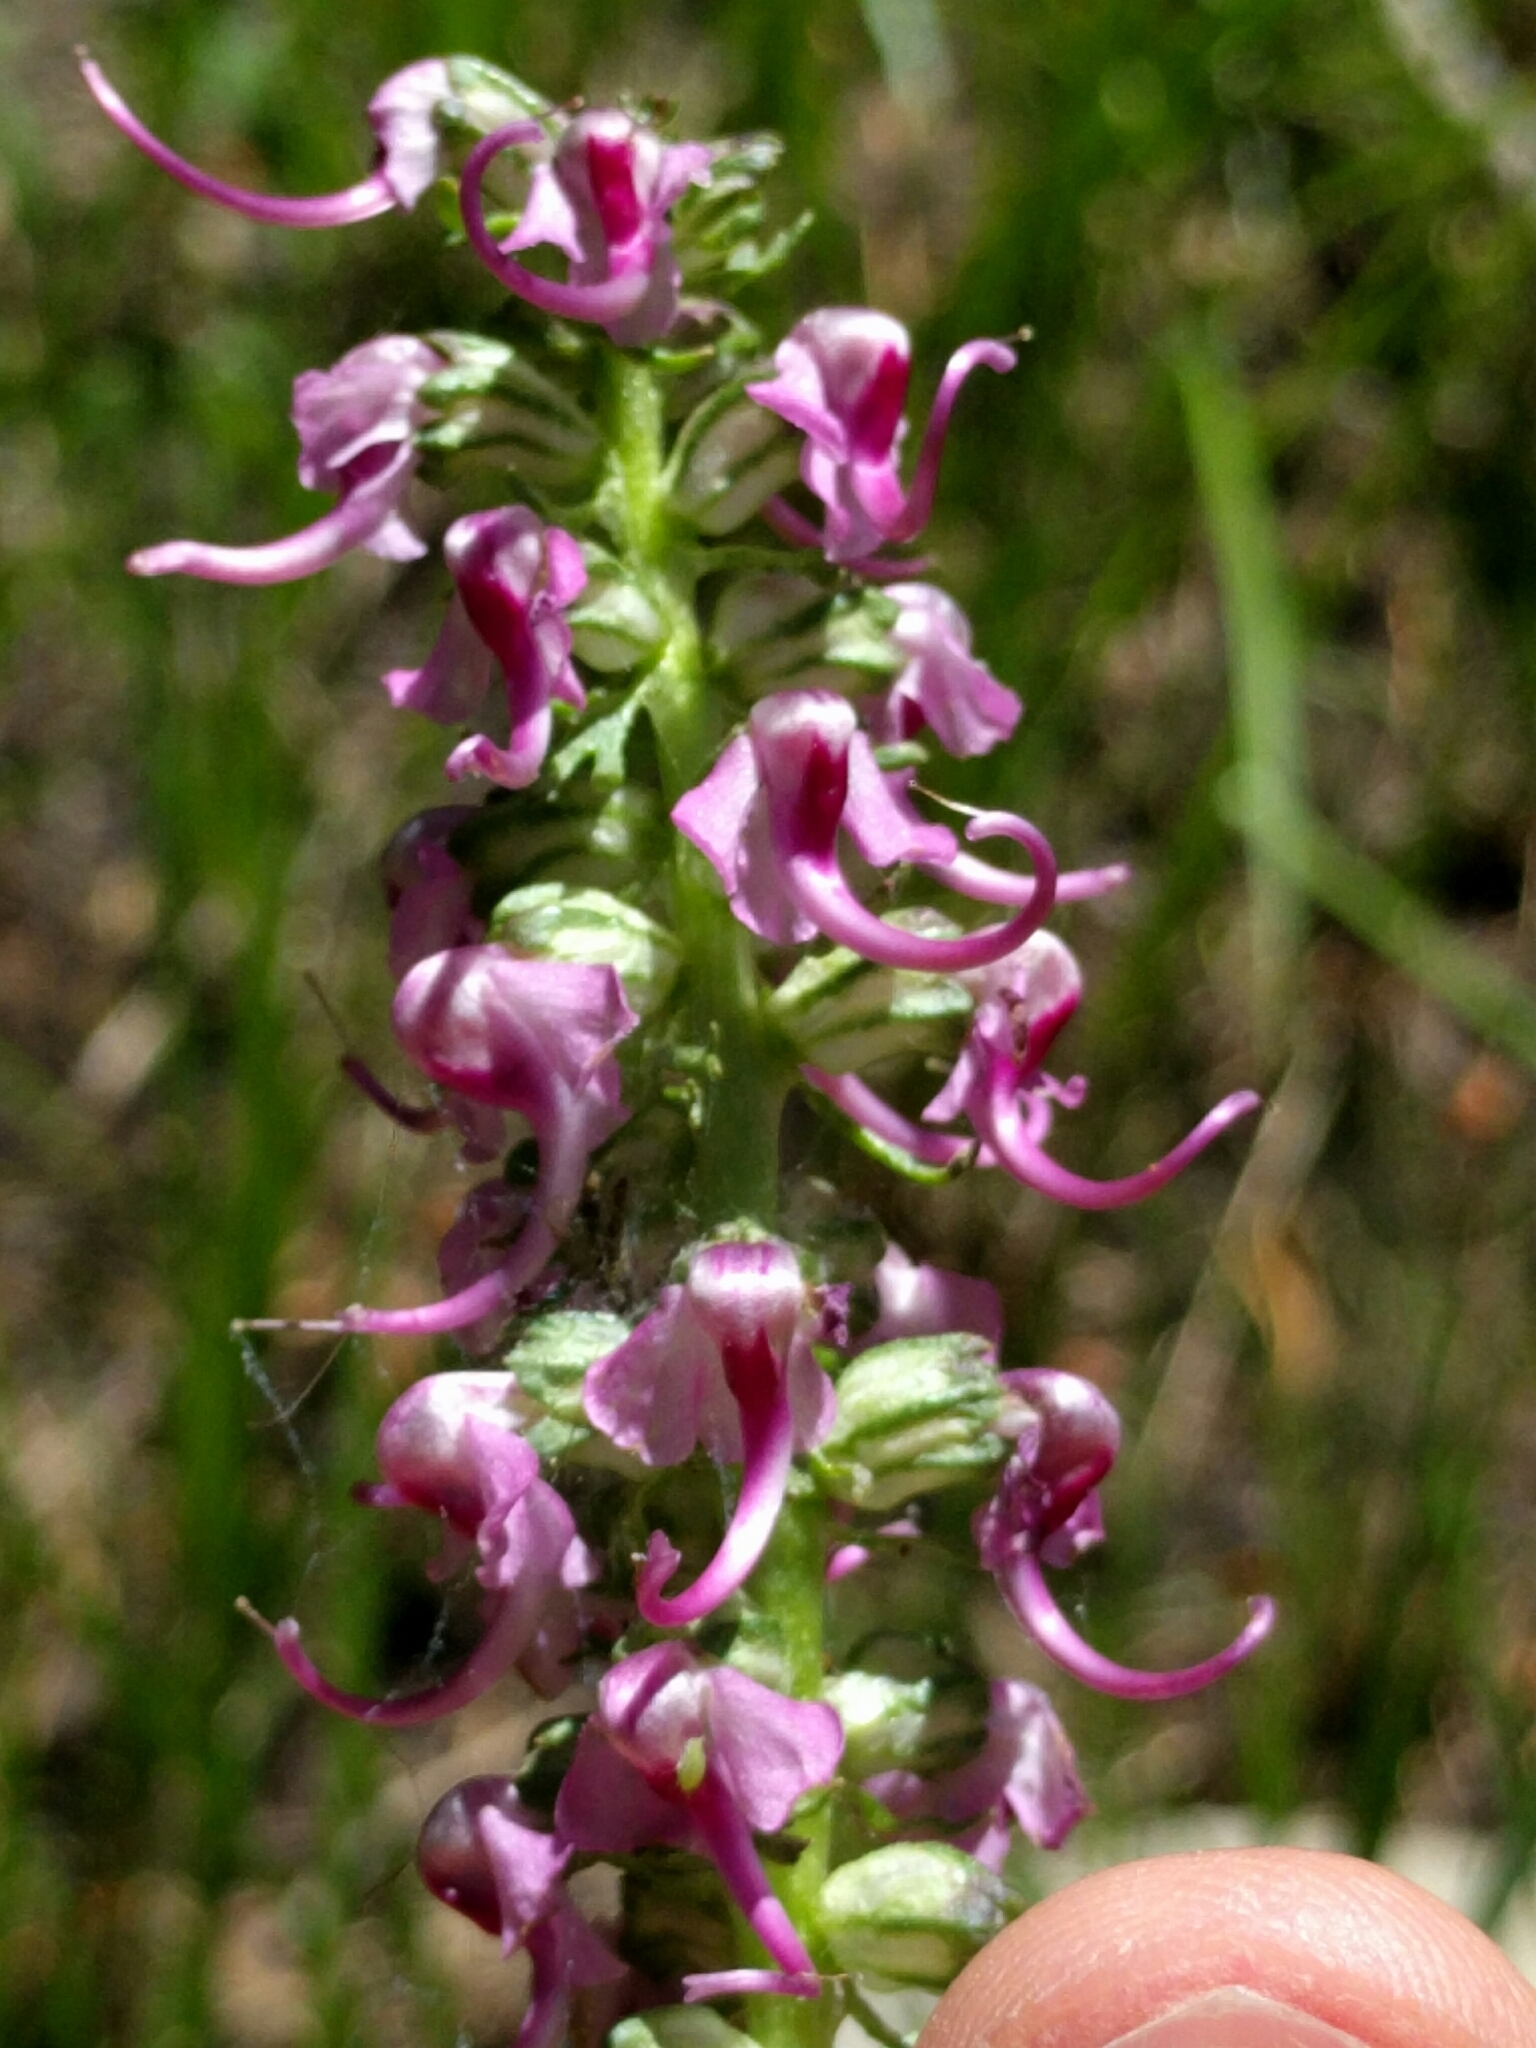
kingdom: Plantae
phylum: Tracheophyta
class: Magnoliopsida
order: Lamiales
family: Orobanchaceae
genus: Pedicularis
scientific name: Pedicularis groenlandica
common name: Elephant's-head
